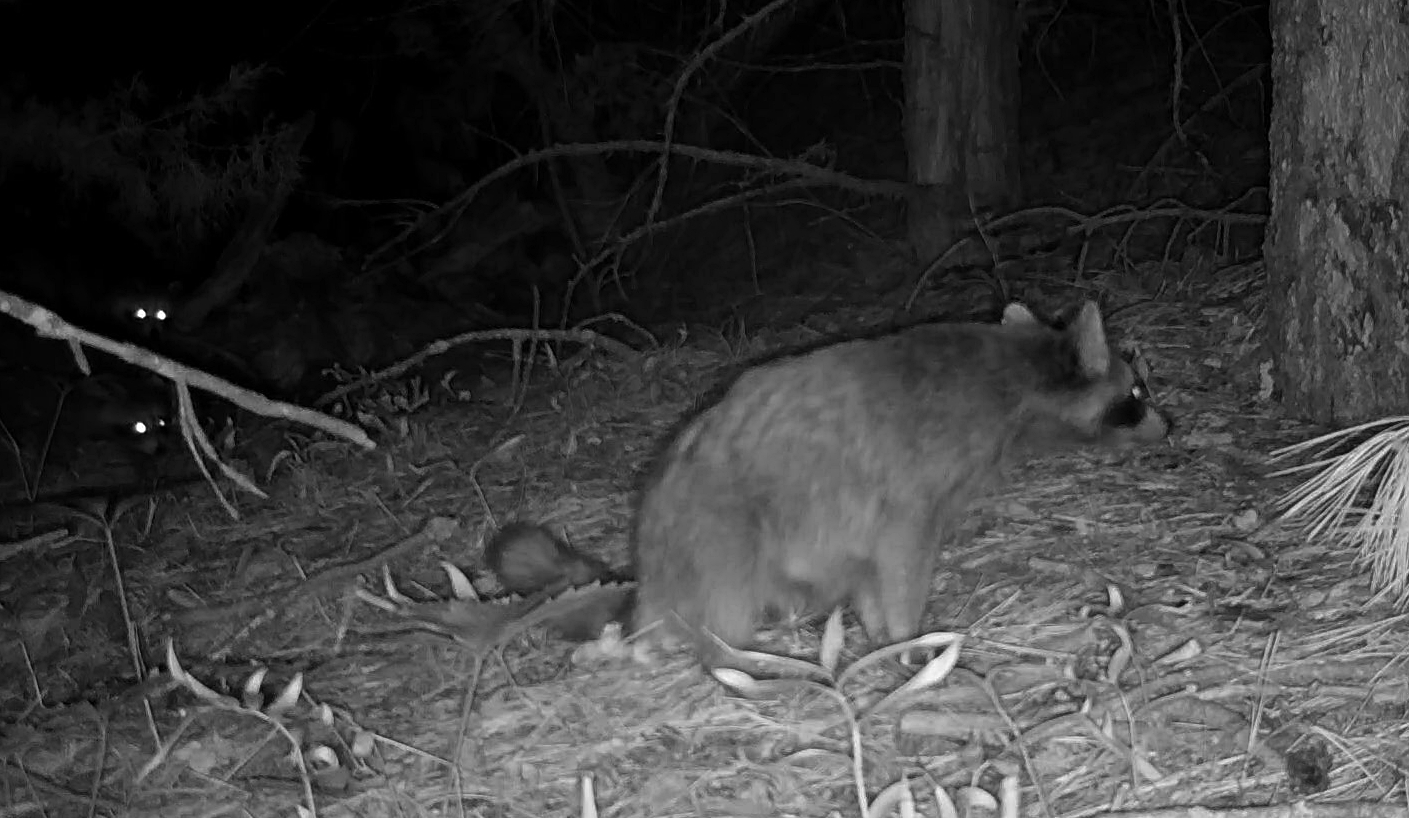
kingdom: Animalia
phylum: Chordata
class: Mammalia
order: Carnivora
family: Procyonidae
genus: Procyon
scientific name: Procyon lotor
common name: Raccoon
